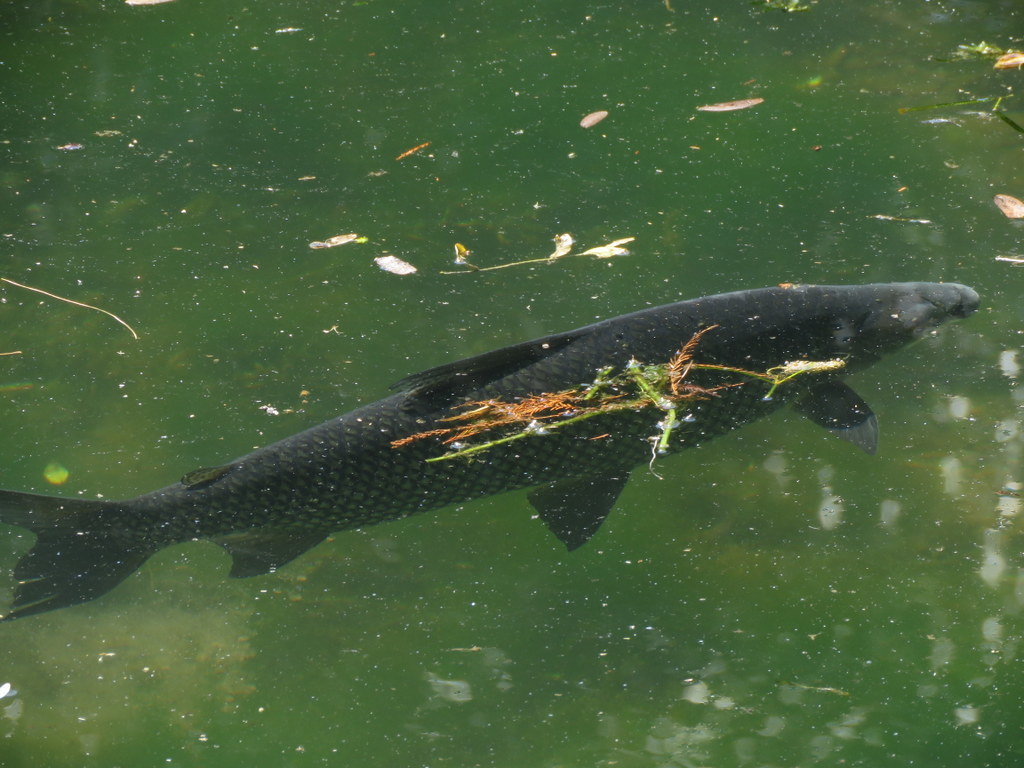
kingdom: Animalia
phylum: Chordata
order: Characiformes
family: Prochilodontidae
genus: Prochilodus
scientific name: Prochilodus lineatus
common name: Curimbata
